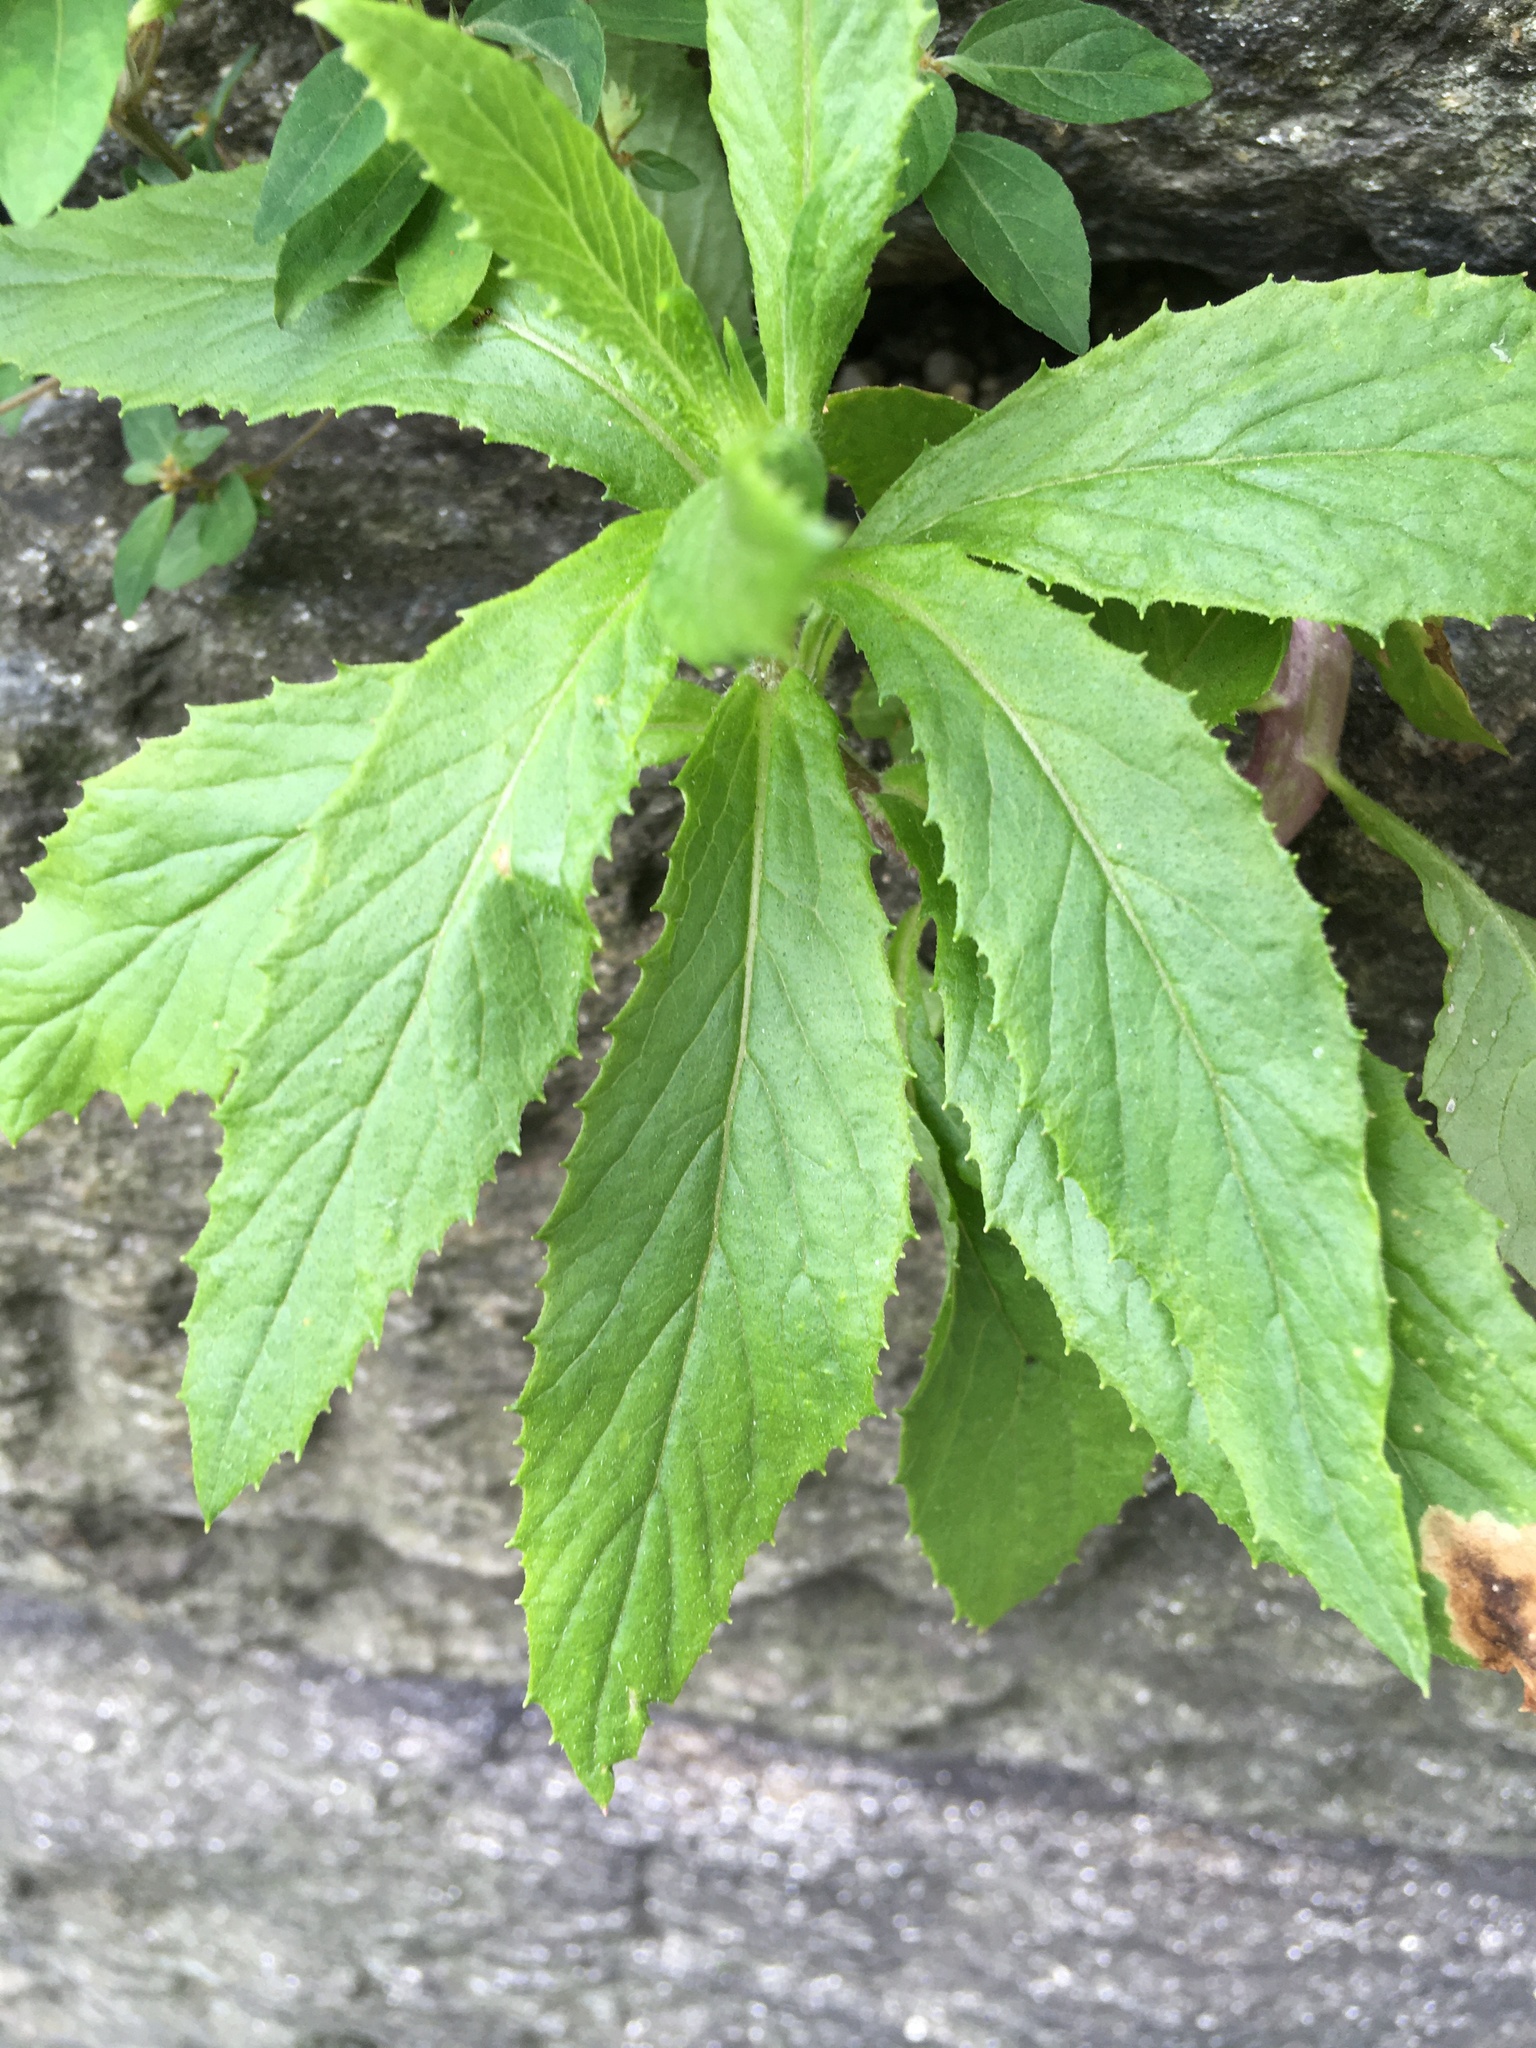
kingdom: Plantae
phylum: Tracheophyta
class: Magnoliopsida
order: Asterales
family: Asteraceae
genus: Erechtites
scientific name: Erechtites hieraciifolius
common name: American burnweed
